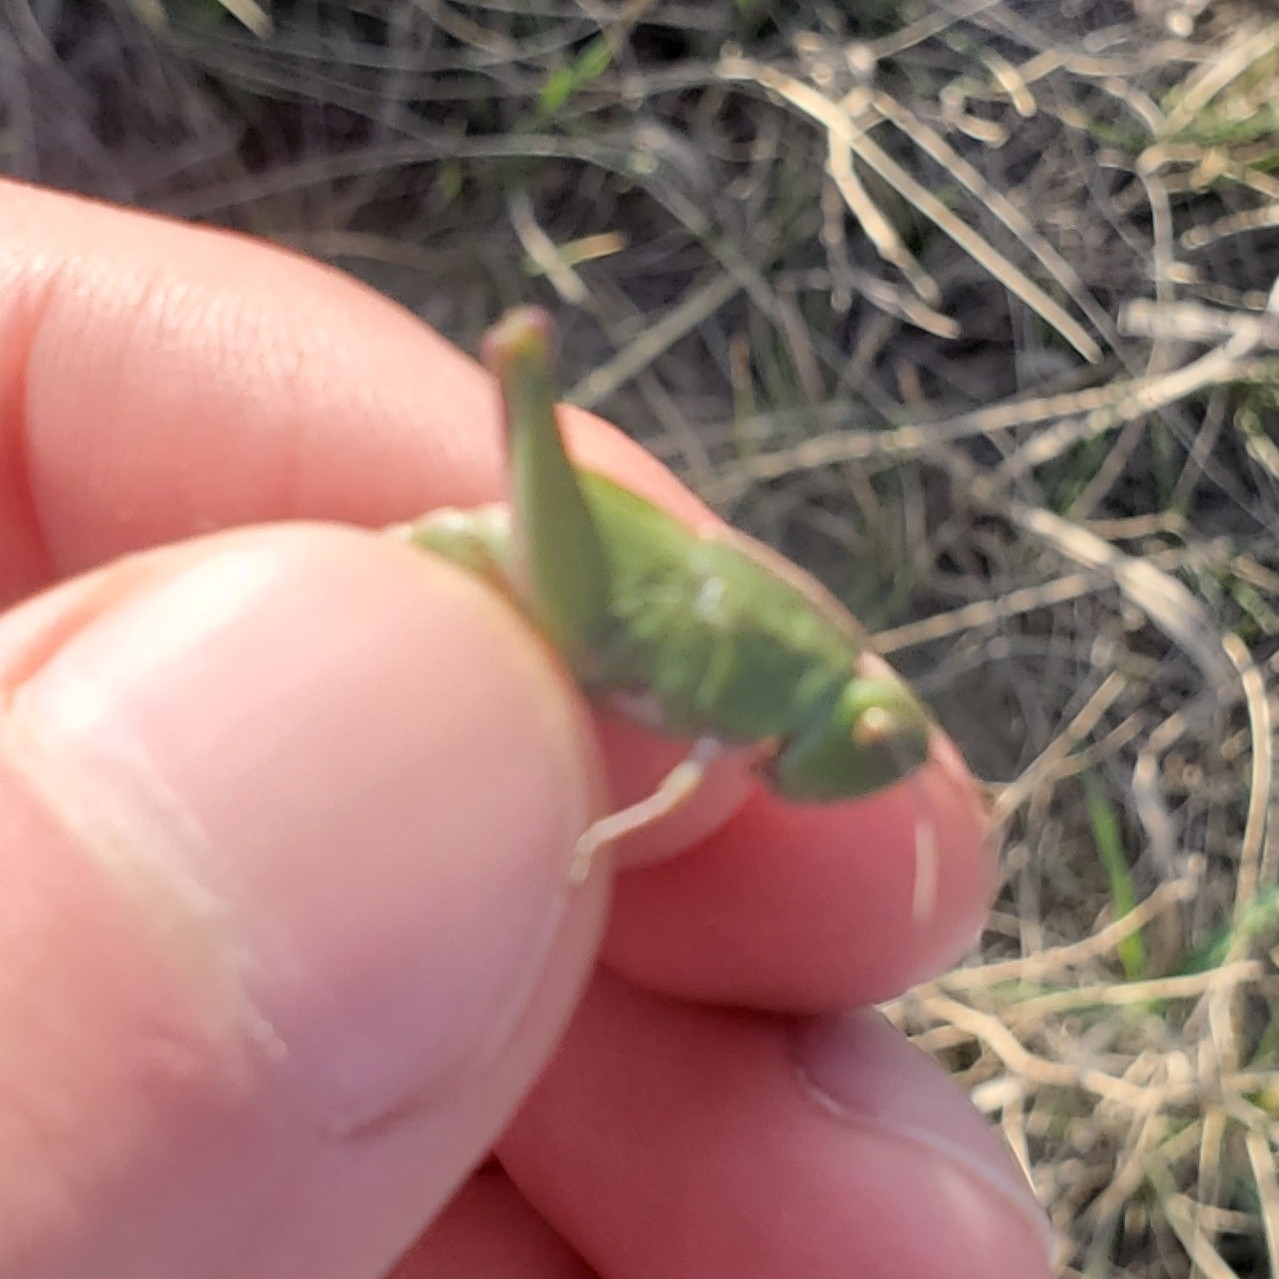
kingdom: Animalia
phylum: Arthropoda
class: Insecta
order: Orthoptera
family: Acrididae
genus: Chortophaga
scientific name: Chortophaga viridifasciata
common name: Green-striped grasshopper
